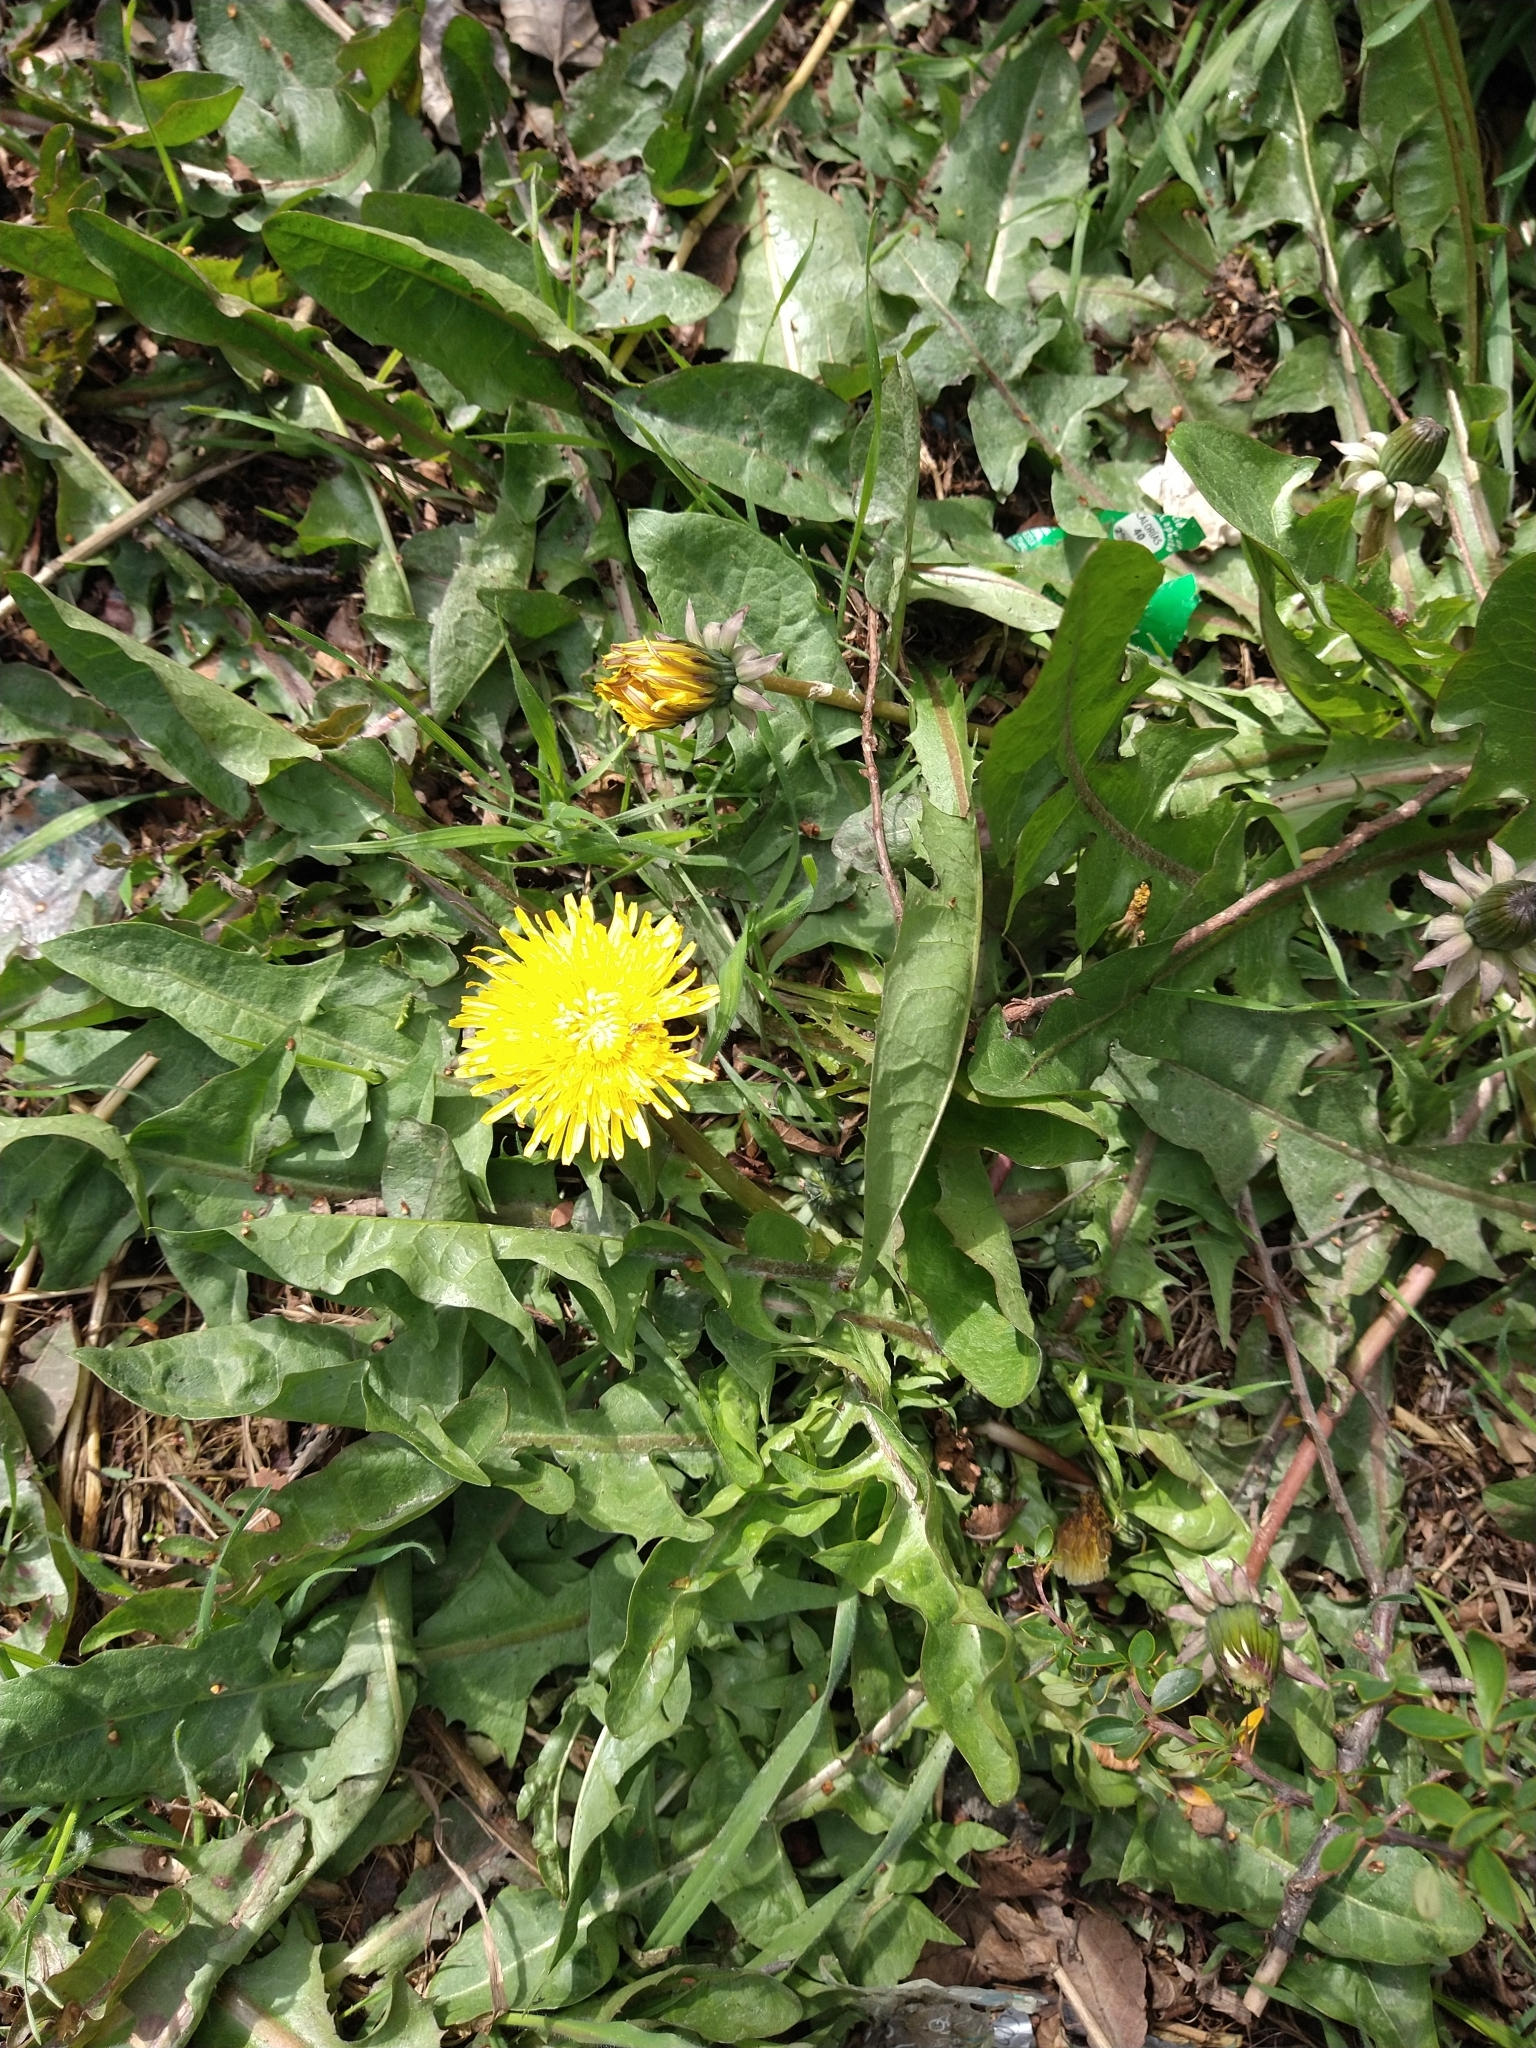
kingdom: Plantae
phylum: Tracheophyta
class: Magnoliopsida
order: Asterales
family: Asteraceae
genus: Taraxacum
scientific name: Taraxacum officinale
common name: Common dandelion
